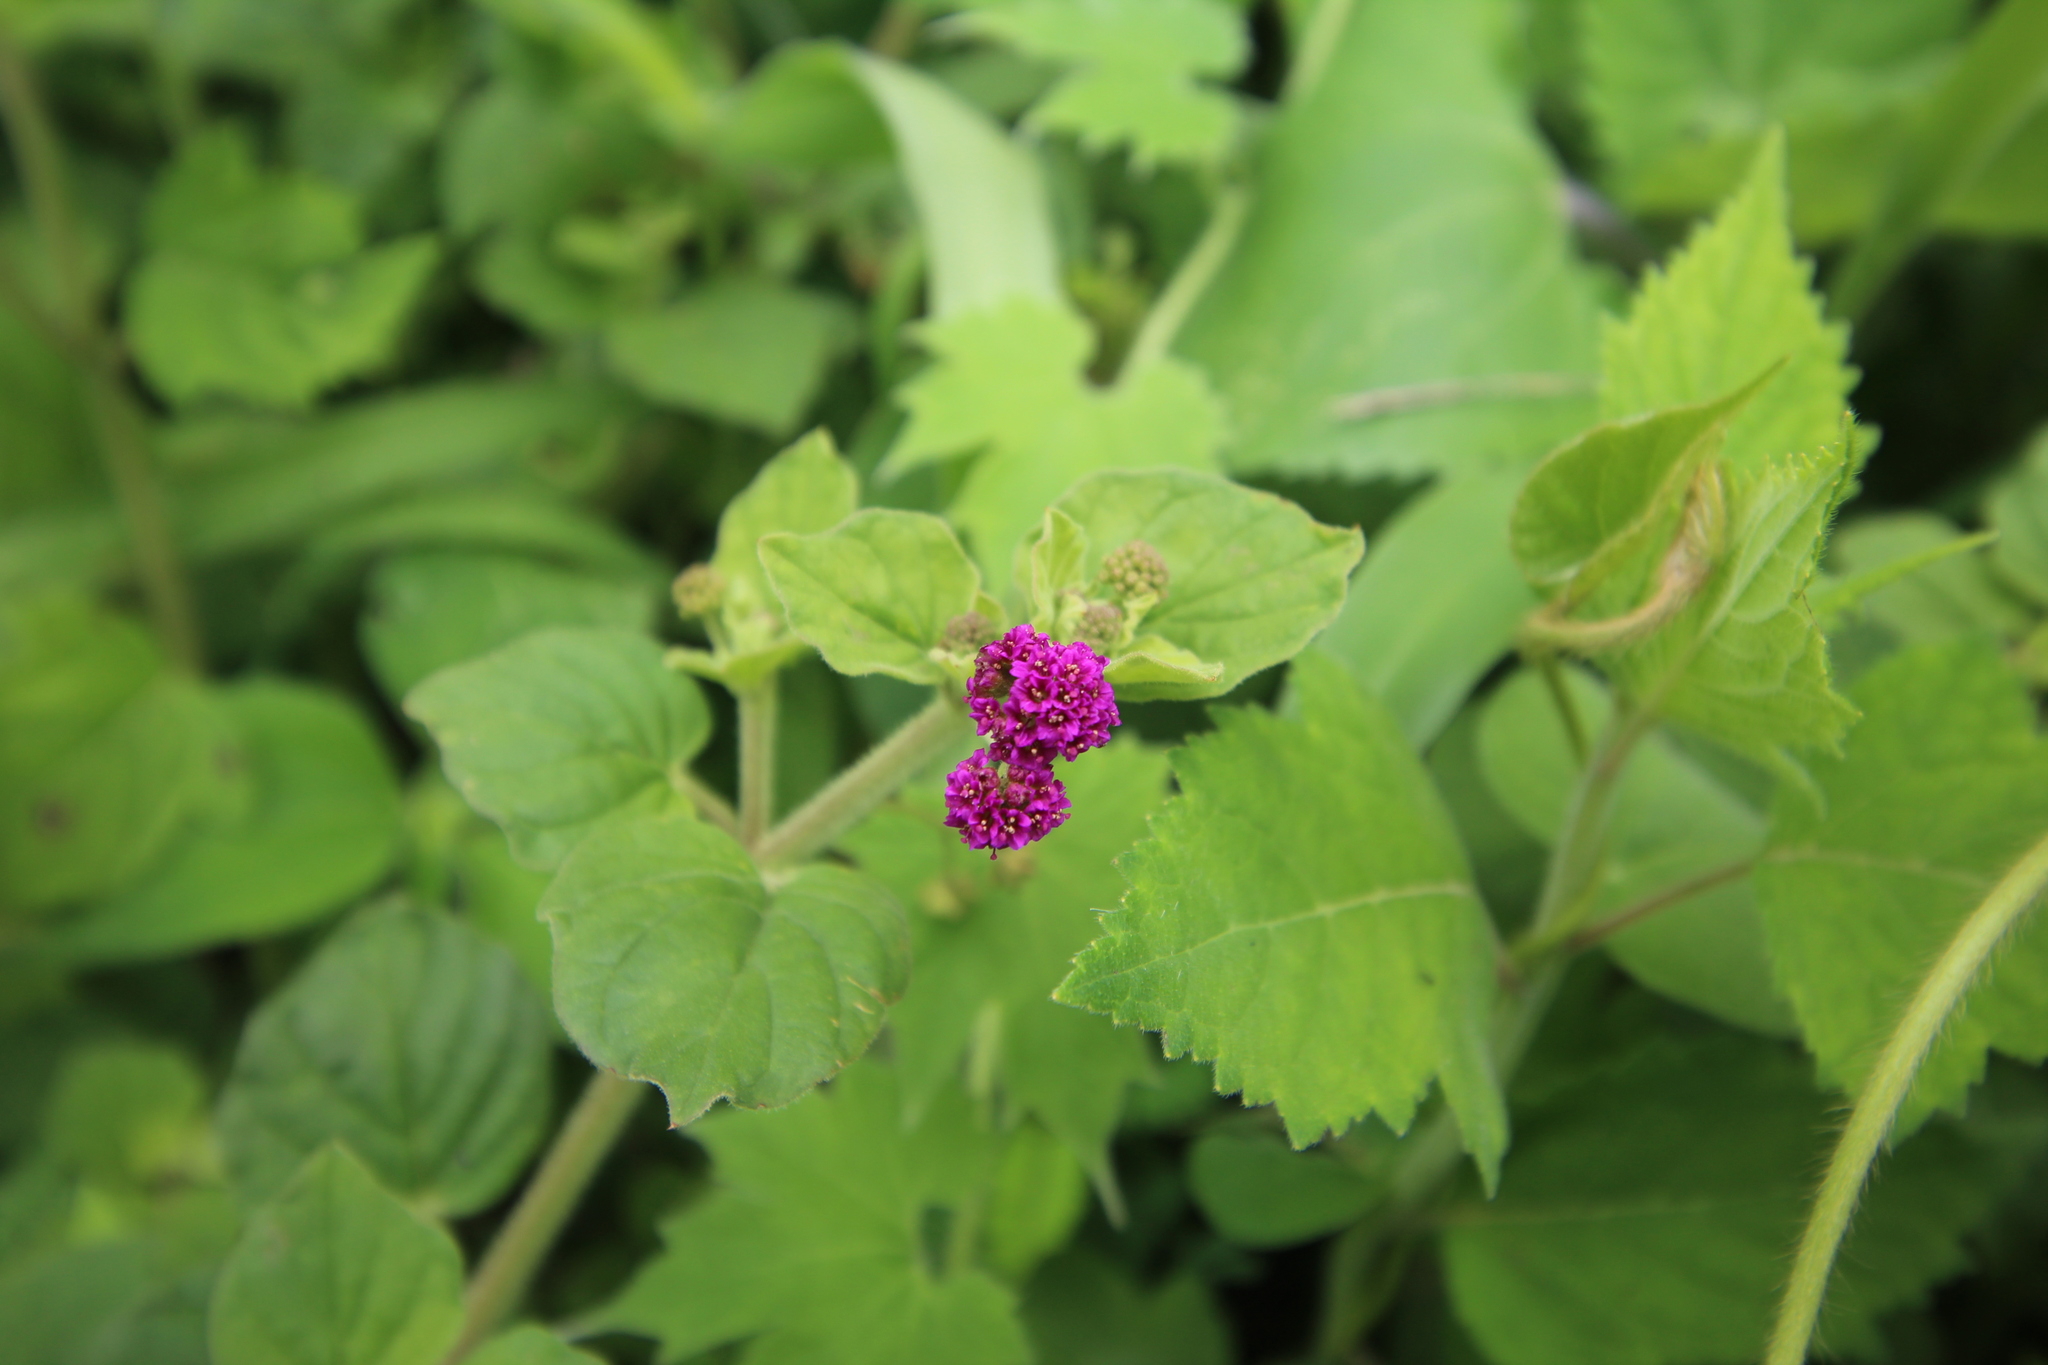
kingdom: Plantae
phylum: Tracheophyta
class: Magnoliopsida
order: Caryophyllales
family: Nyctaginaceae
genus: Boerhavia
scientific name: Boerhavia coccinea
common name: Scarlet spiderling
